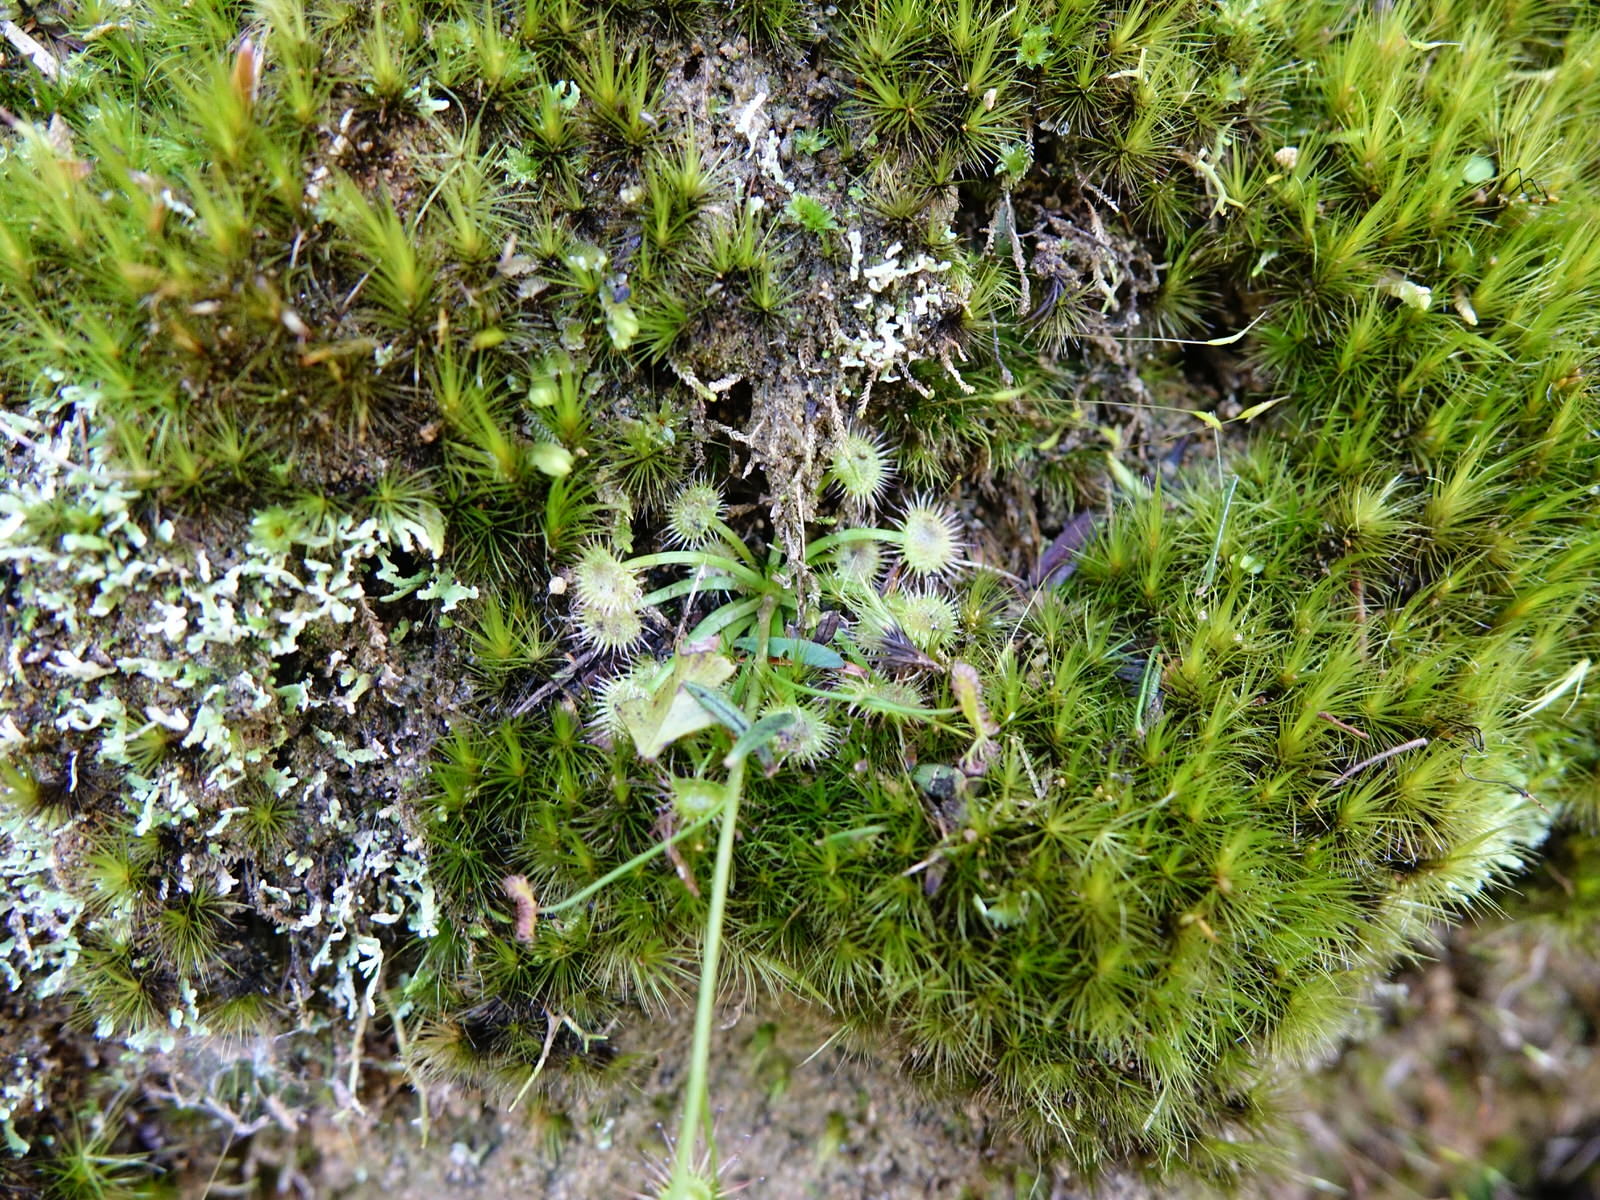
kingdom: Plantae
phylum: Tracheophyta
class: Magnoliopsida
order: Caryophyllales
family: Droseraceae
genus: Drosera
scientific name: Drosera peltata
